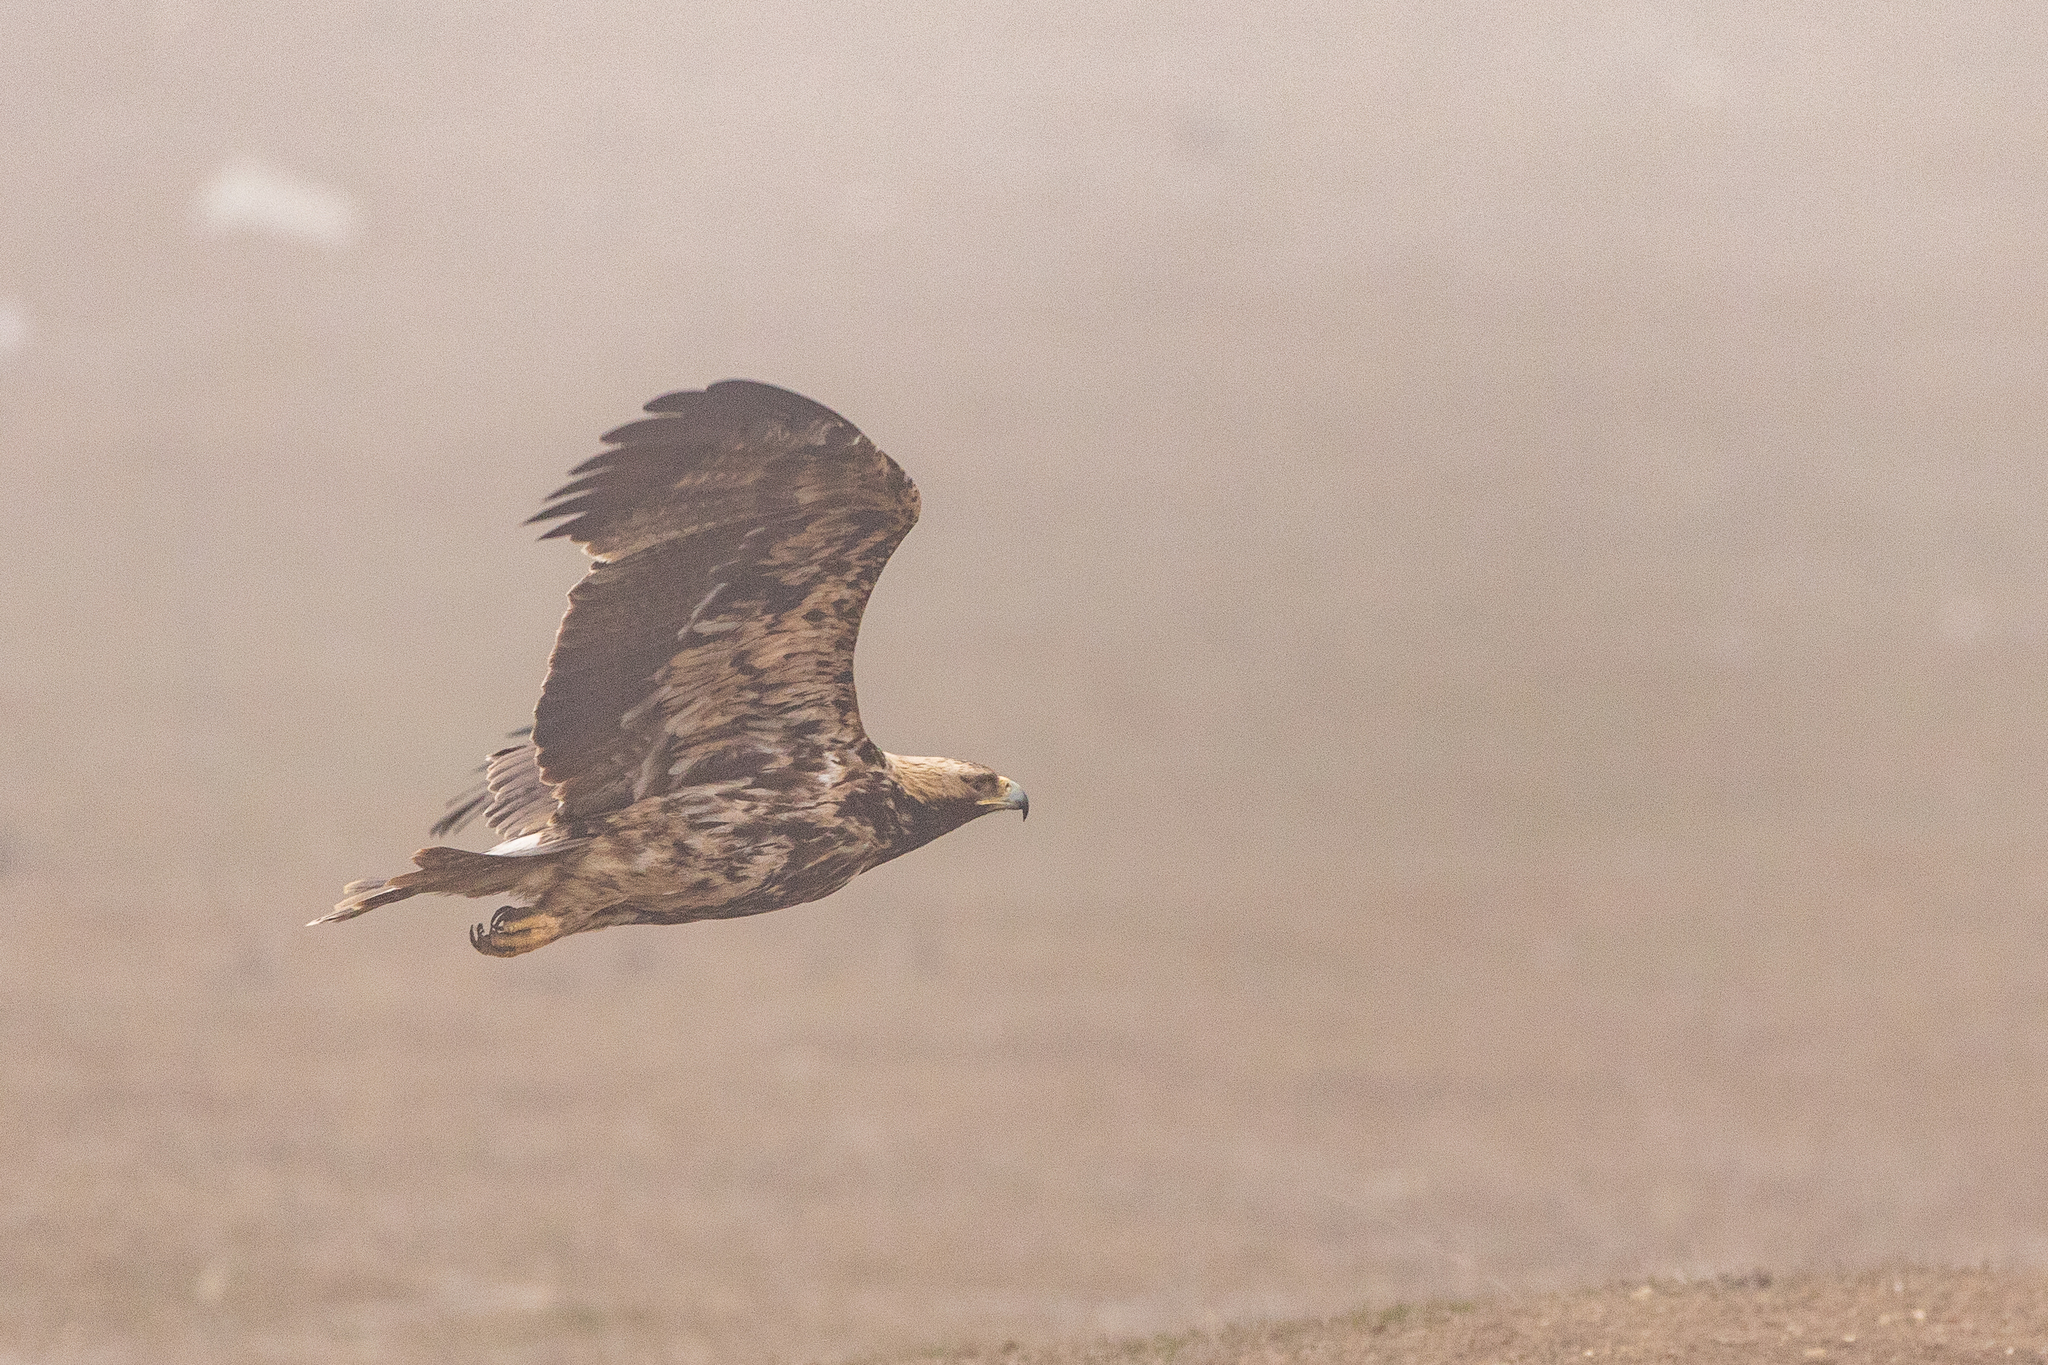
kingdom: Animalia
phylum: Chordata
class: Aves
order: Accipitriformes
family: Accipitridae
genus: Aquila
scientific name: Aquila heliaca
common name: Eastern imperial eagle
